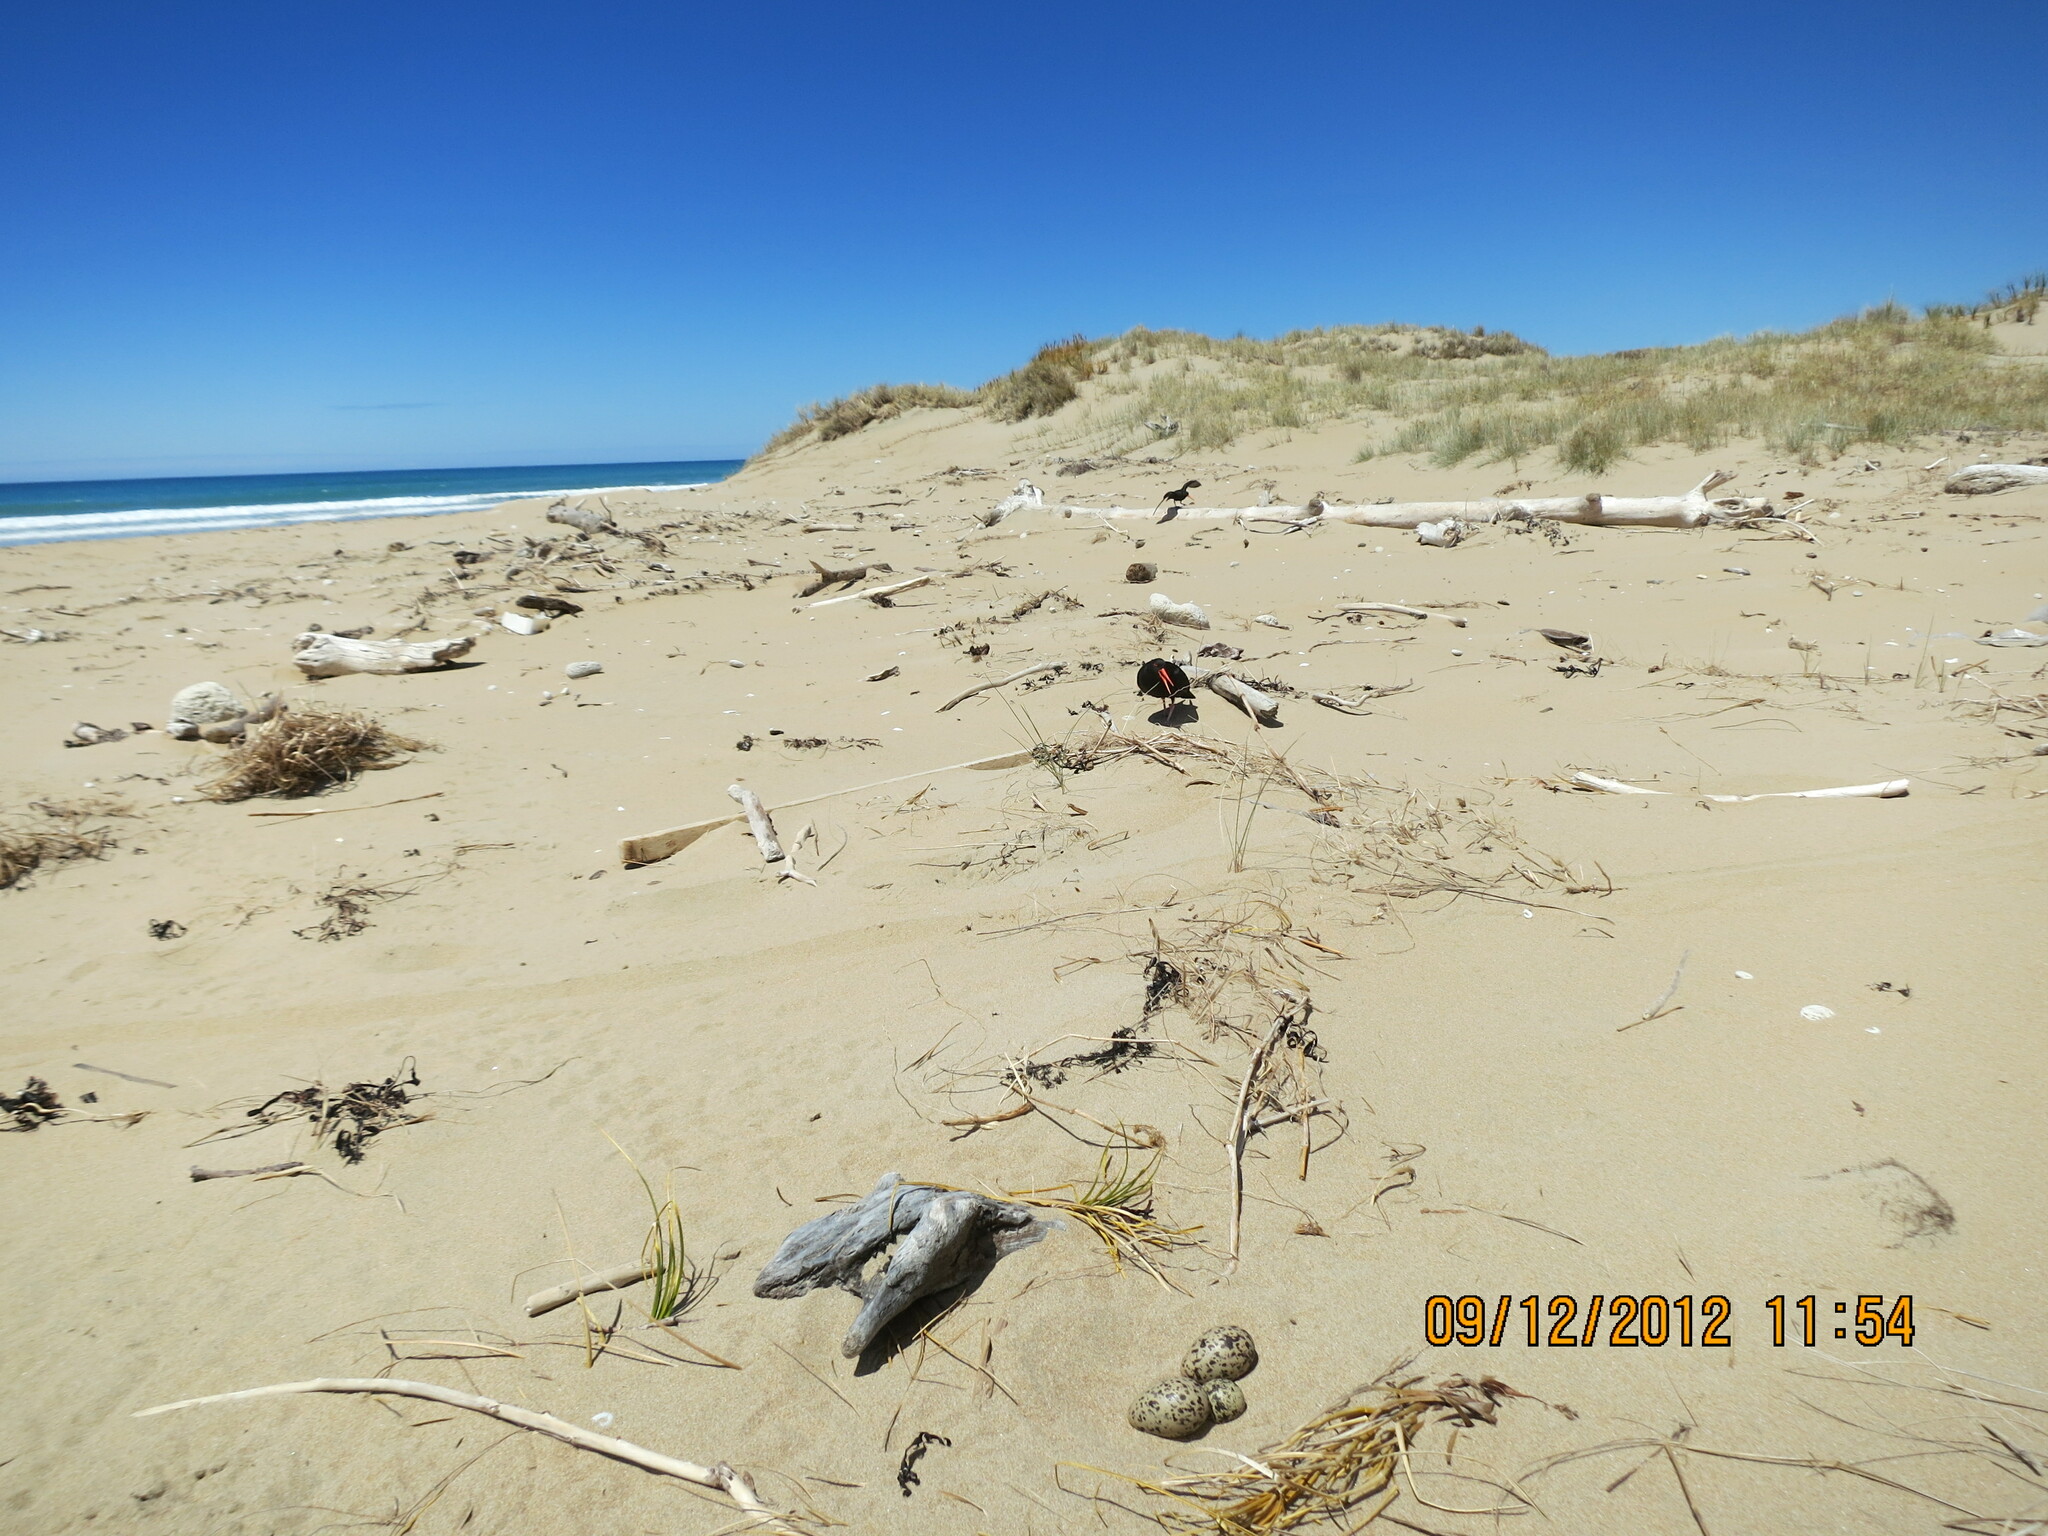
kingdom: Animalia
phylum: Chordata
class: Aves
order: Charadriiformes
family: Haematopodidae
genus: Haematopus
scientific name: Haematopus unicolor
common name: Variable oystercatcher
